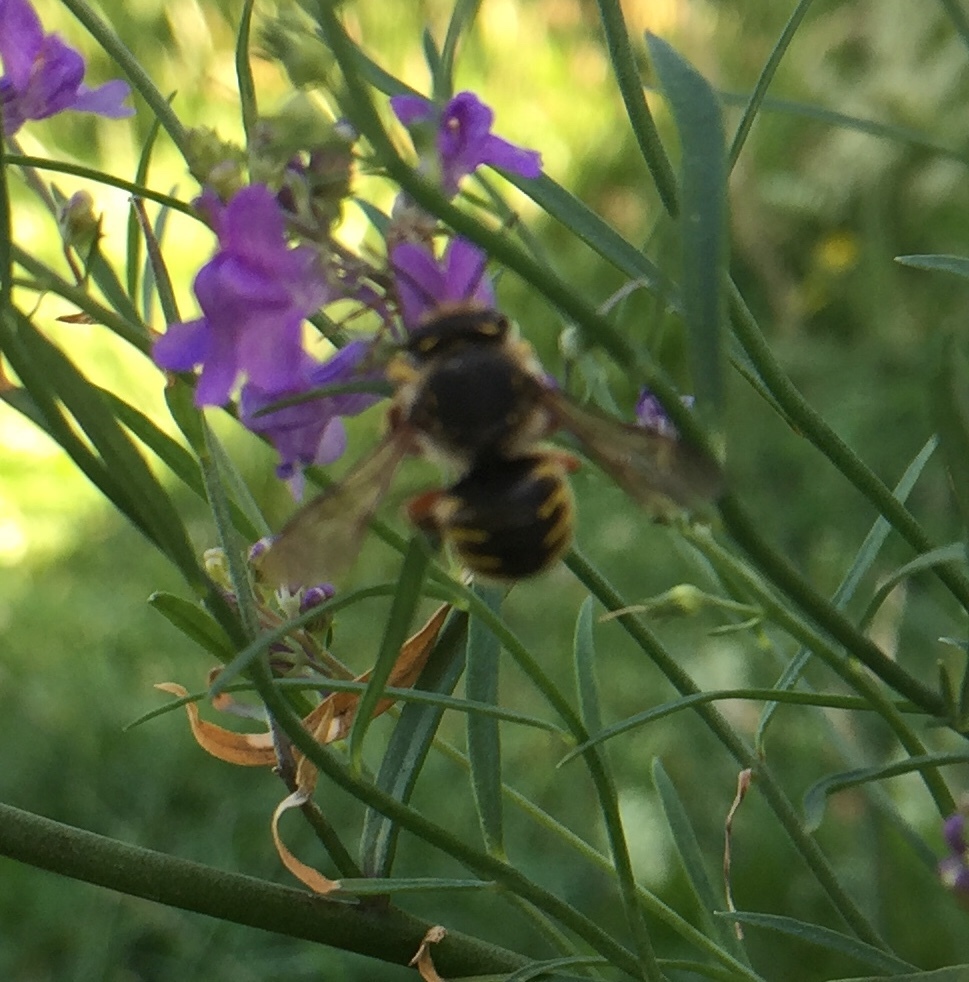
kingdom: Animalia
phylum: Arthropoda
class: Insecta
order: Hymenoptera
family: Megachilidae
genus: Anthidium
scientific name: Anthidium manicatum
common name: Wool carder bee
